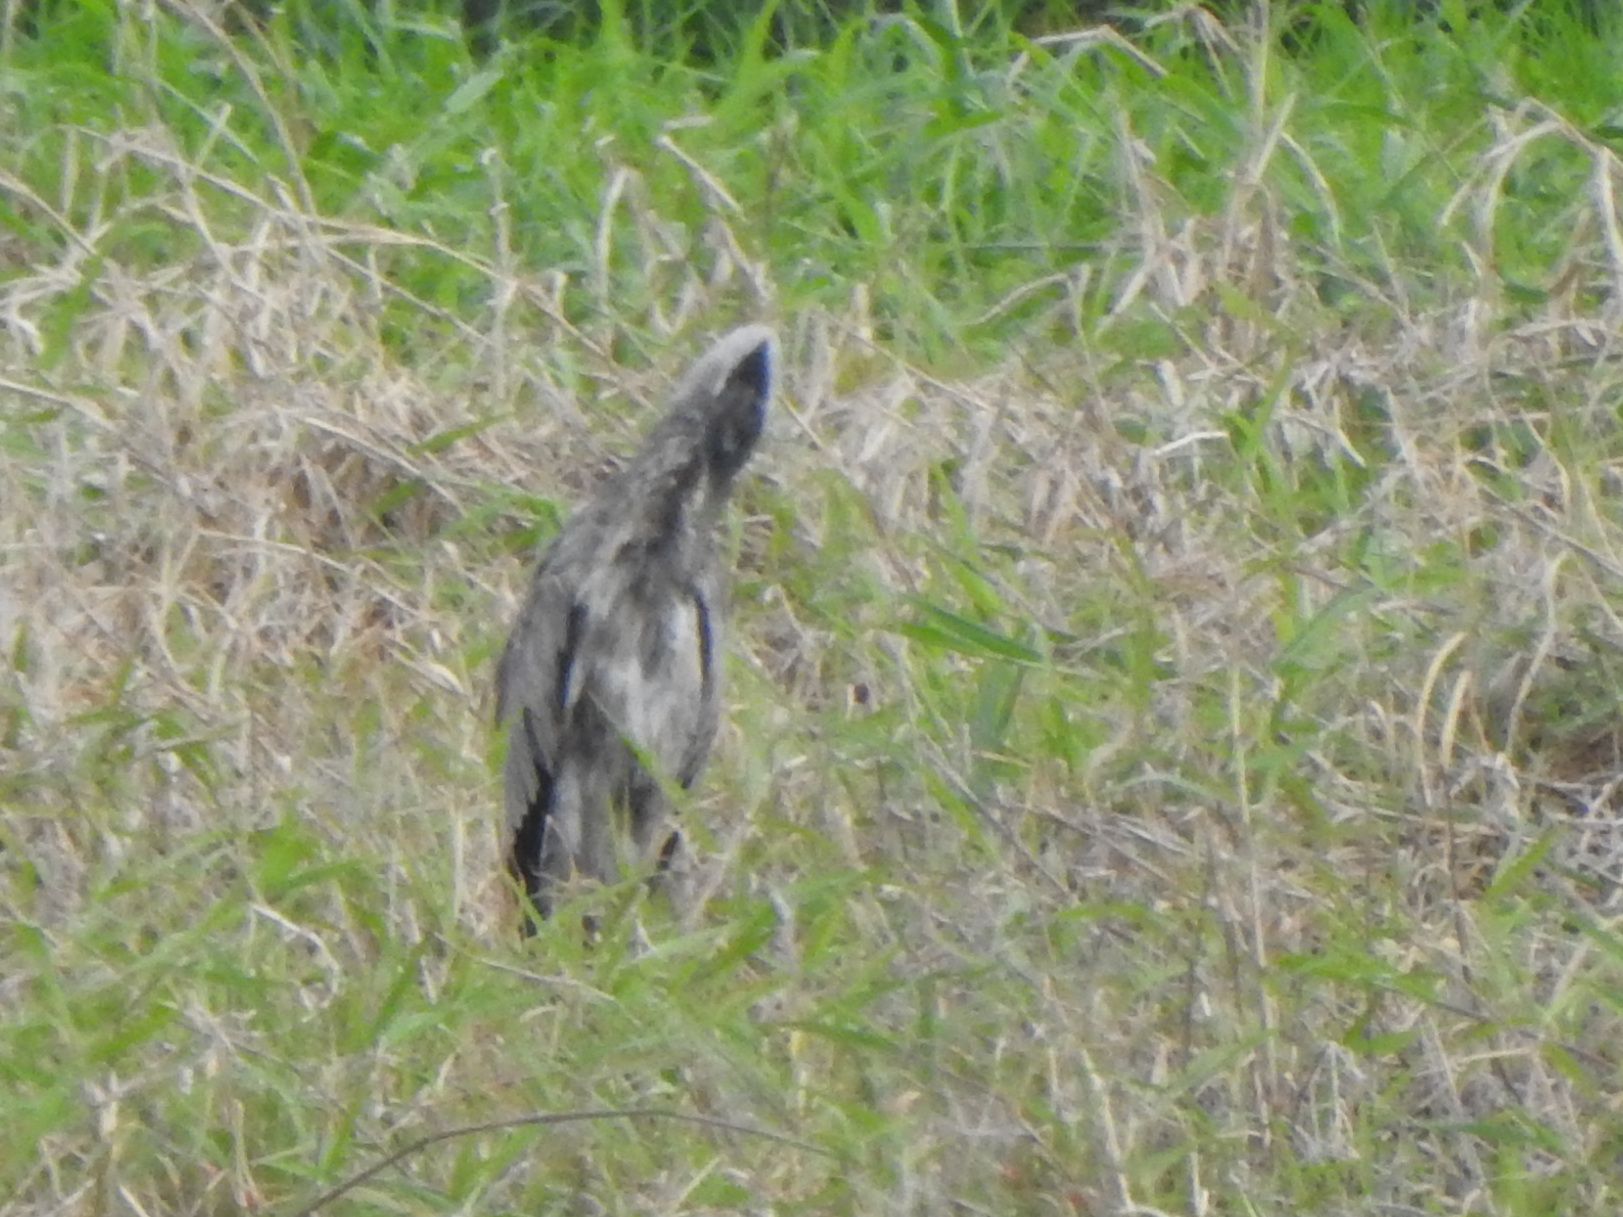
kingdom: Animalia
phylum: Chordata
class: Aves
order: Pelecaniformes
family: Ardeidae
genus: Ardea
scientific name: Ardea cinerea
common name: Grey heron
